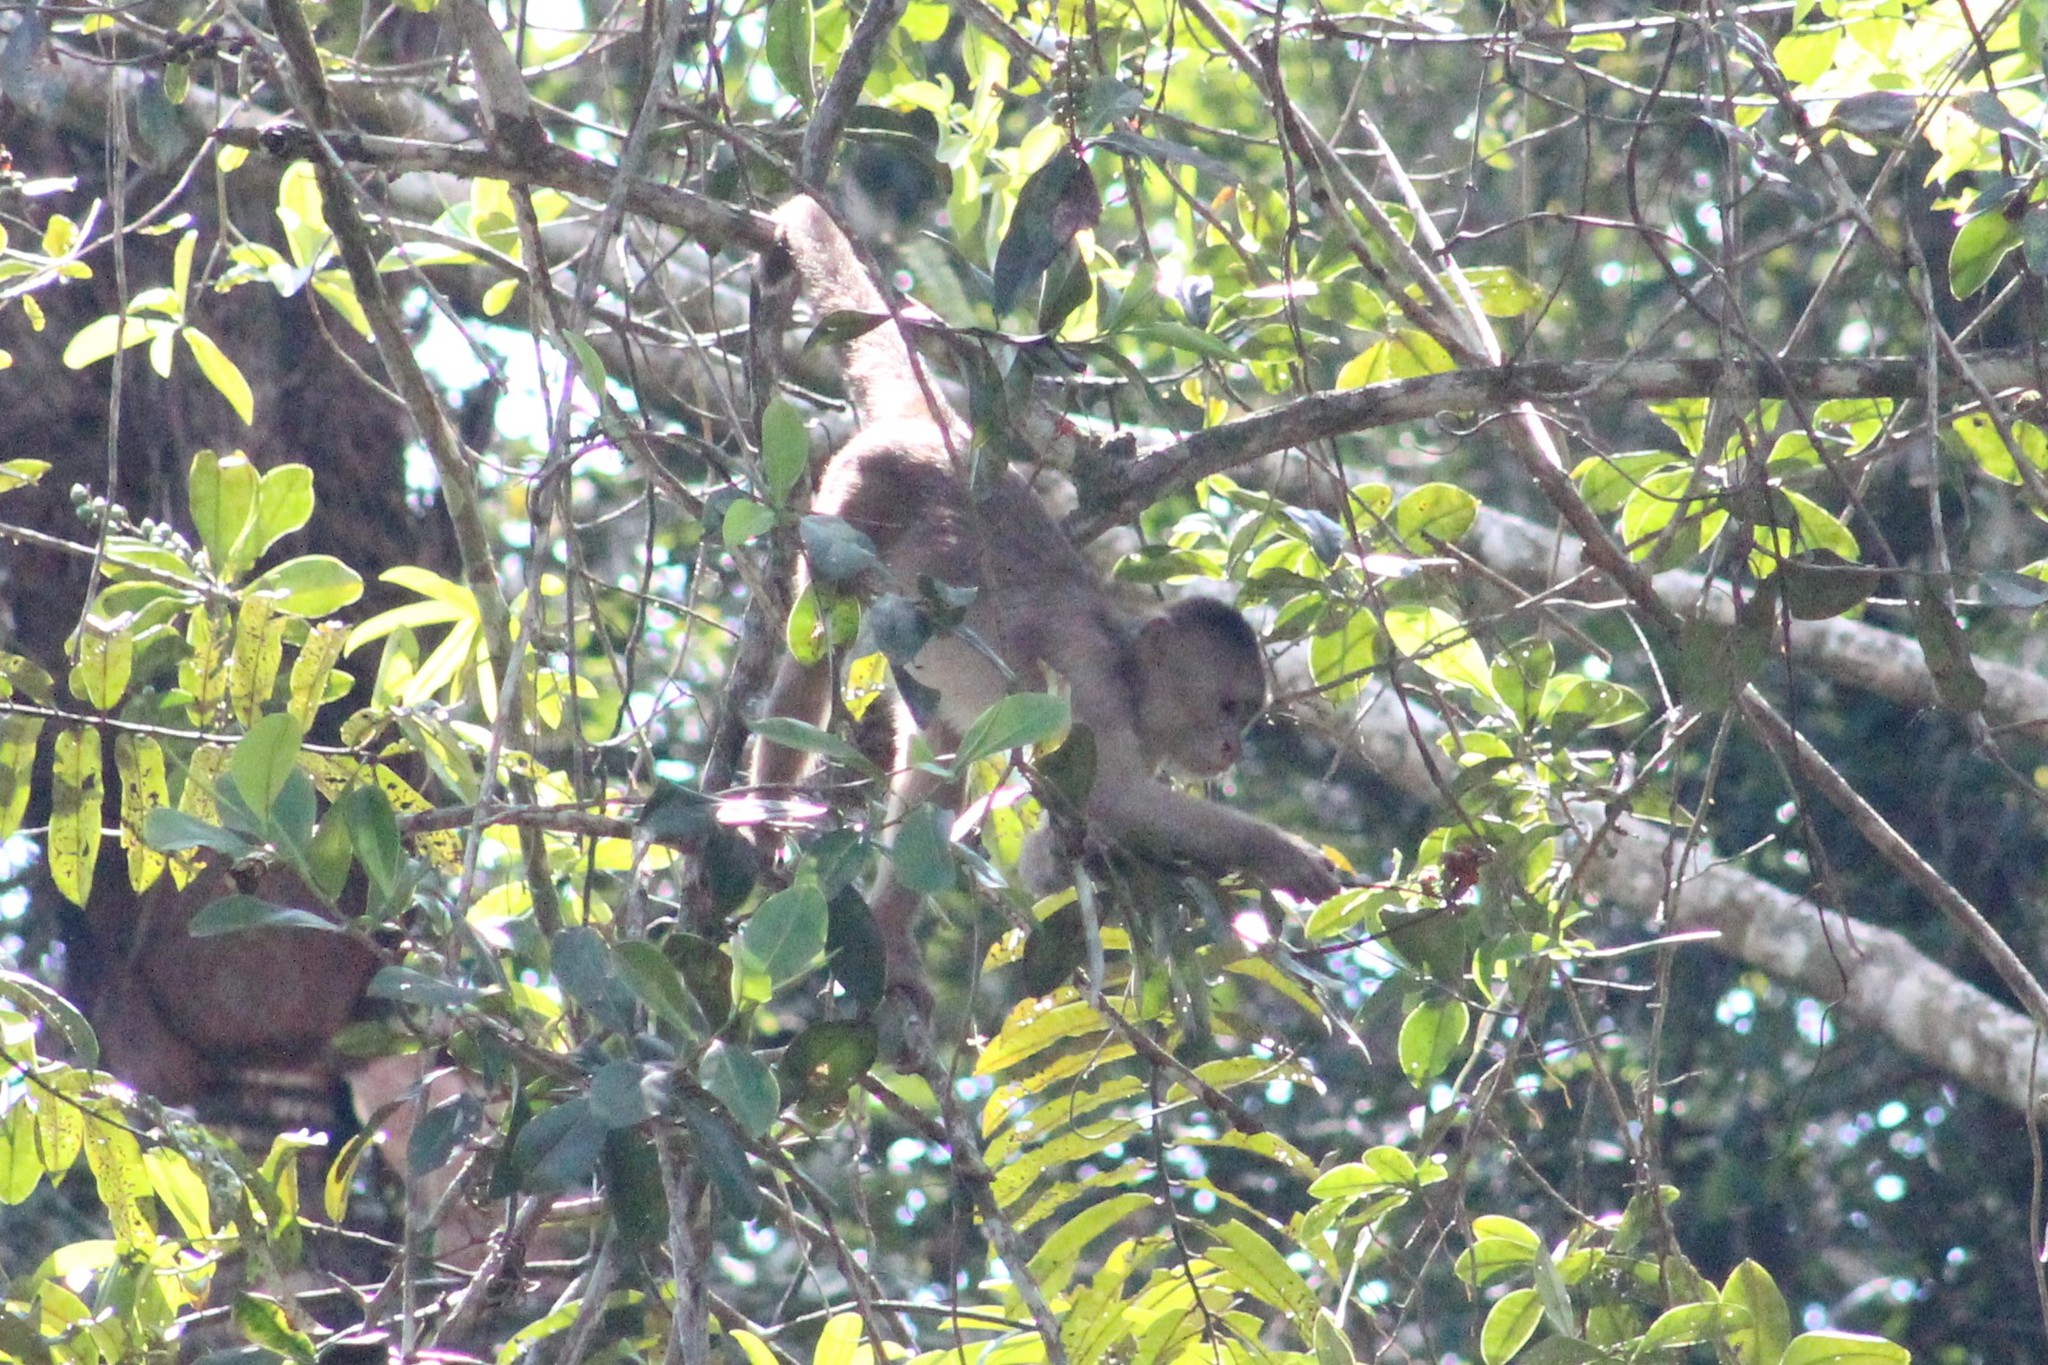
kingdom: Animalia
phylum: Chordata
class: Mammalia
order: Primates
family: Cebidae
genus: Cebus
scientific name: Cebus yuracus
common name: Peruvian white-fronted capuchin
